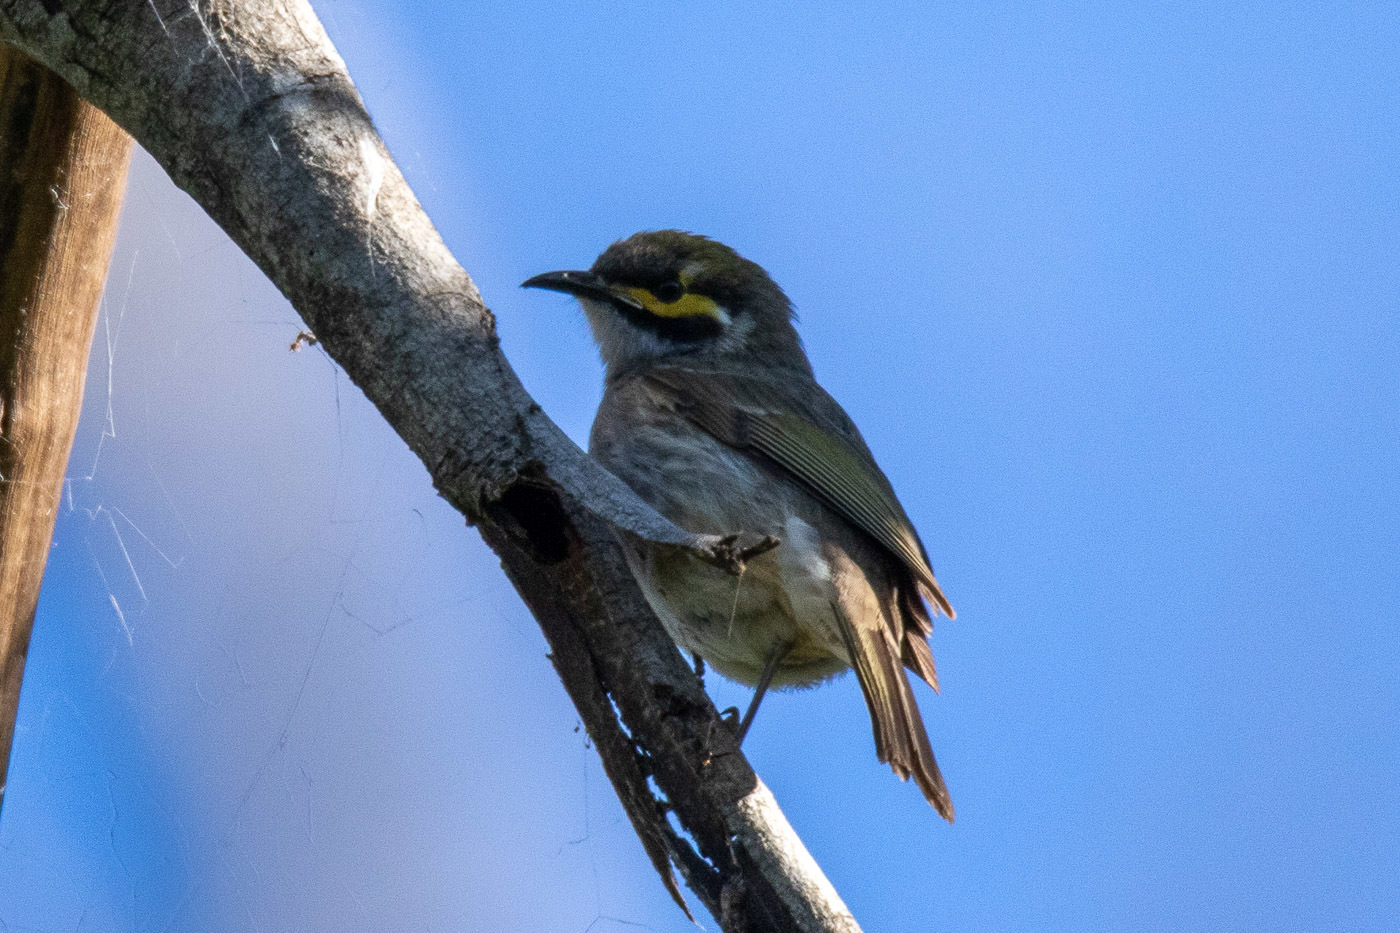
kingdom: Animalia
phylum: Chordata
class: Aves
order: Passeriformes
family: Meliphagidae
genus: Caligavis
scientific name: Caligavis chrysops
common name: Yellow-faced honeyeater
